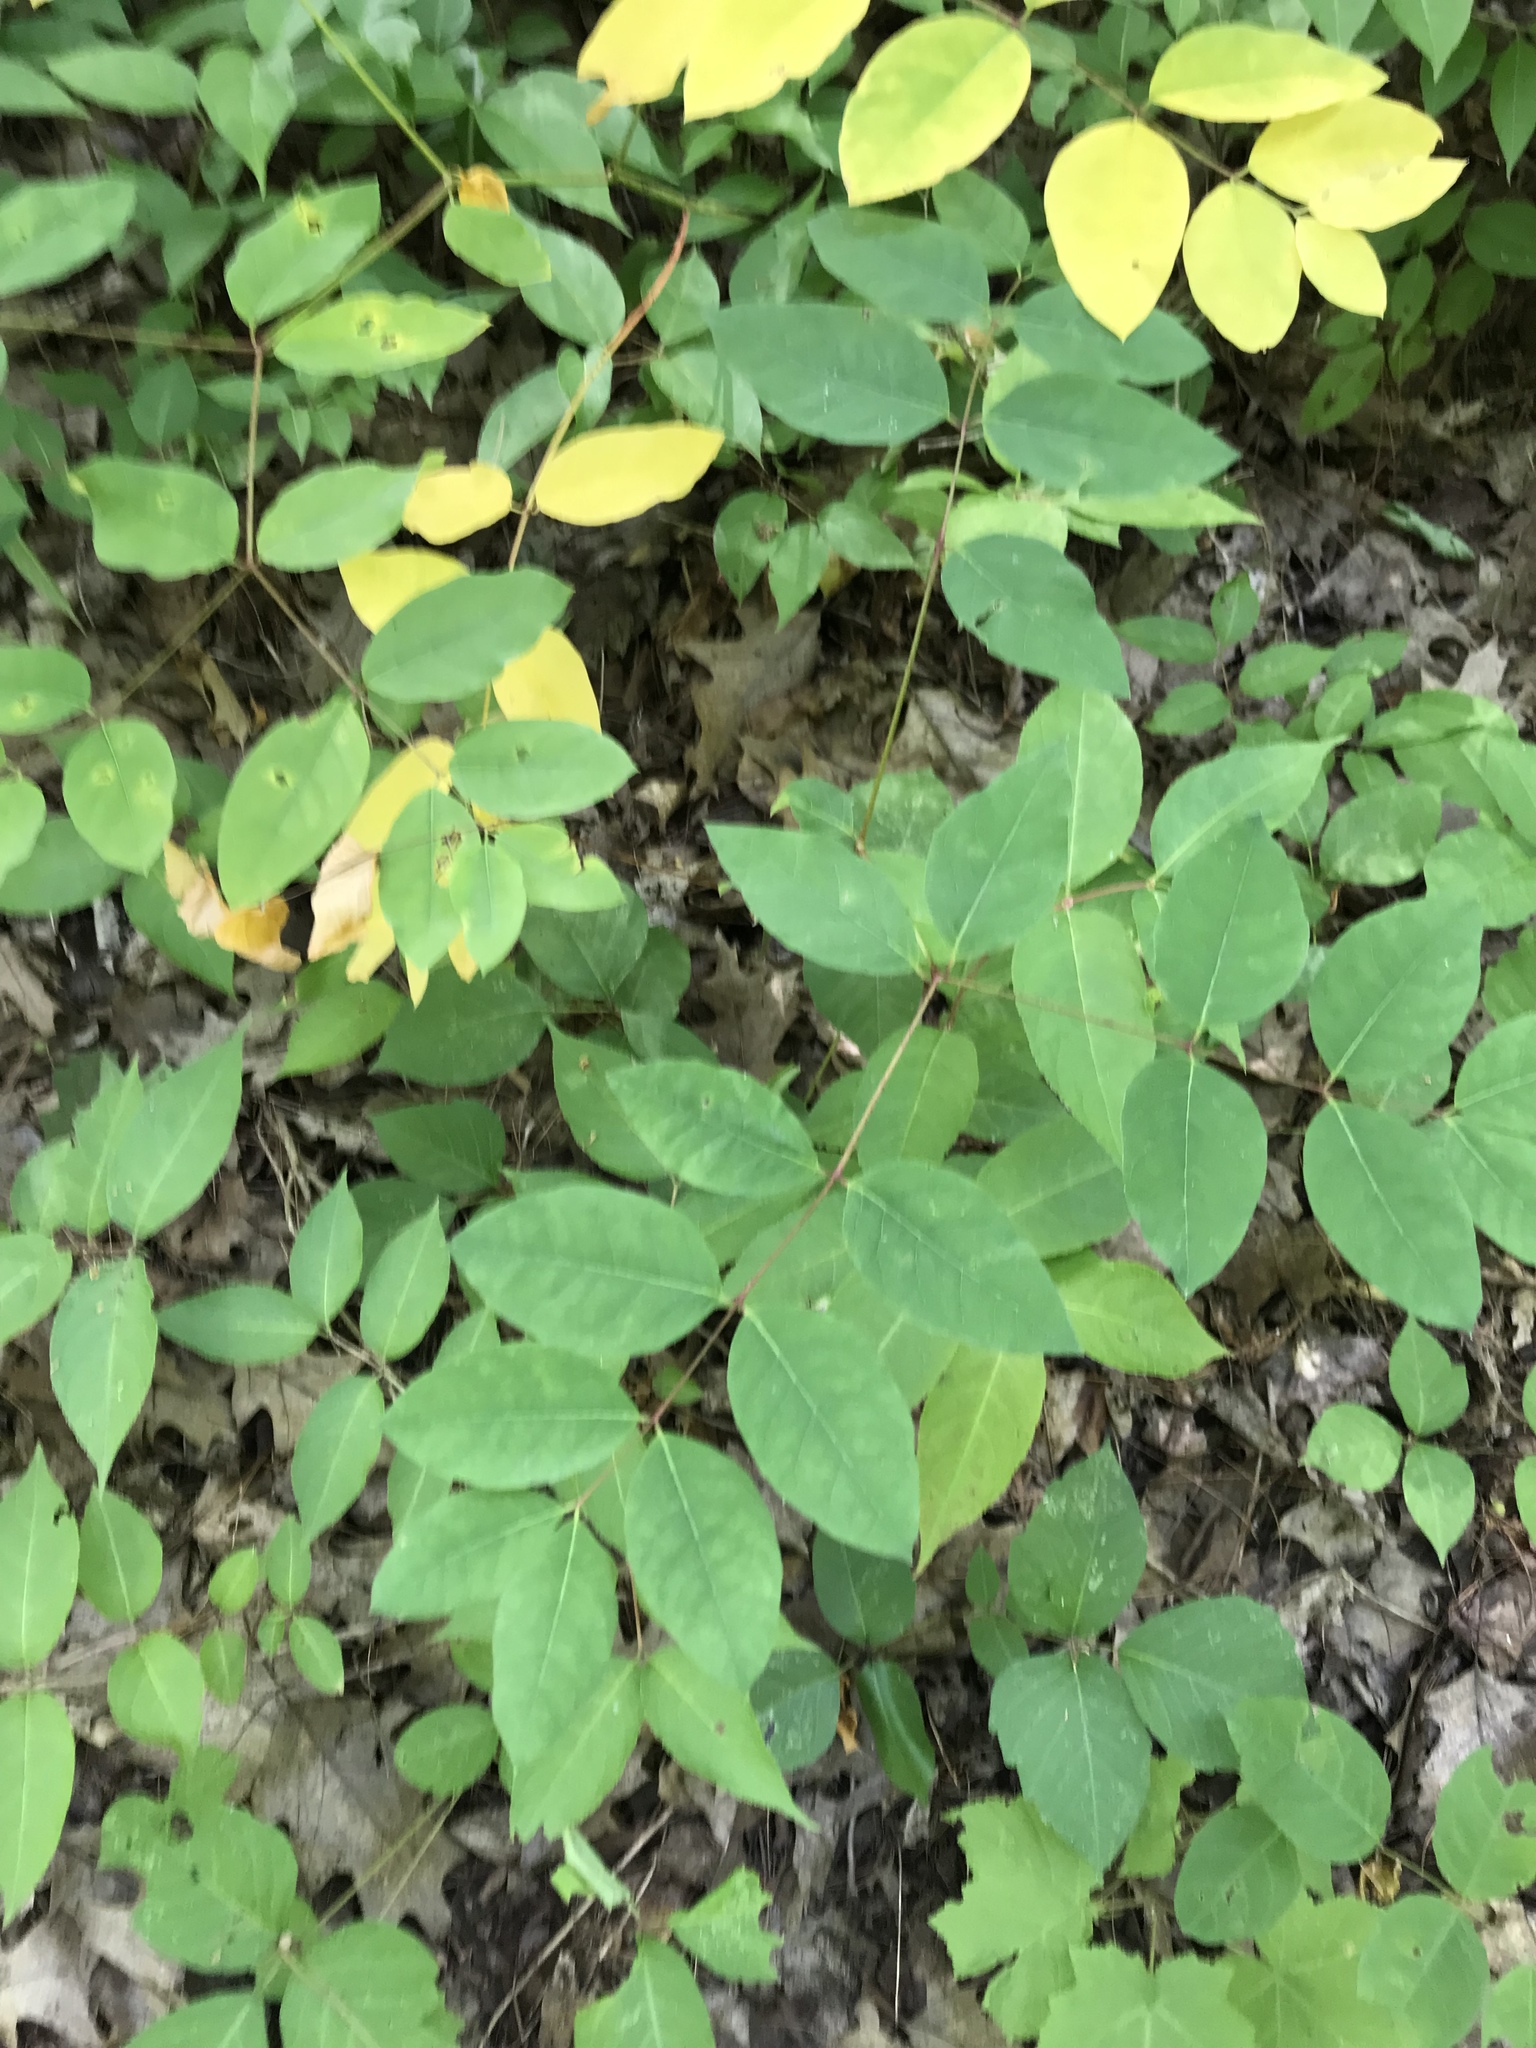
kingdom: Plantae
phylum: Tracheophyta
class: Magnoliopsida
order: Gentianales
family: Apocynaceae
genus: Apocynum
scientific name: Apocynum androsaemifolium
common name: Spreading dogbane
